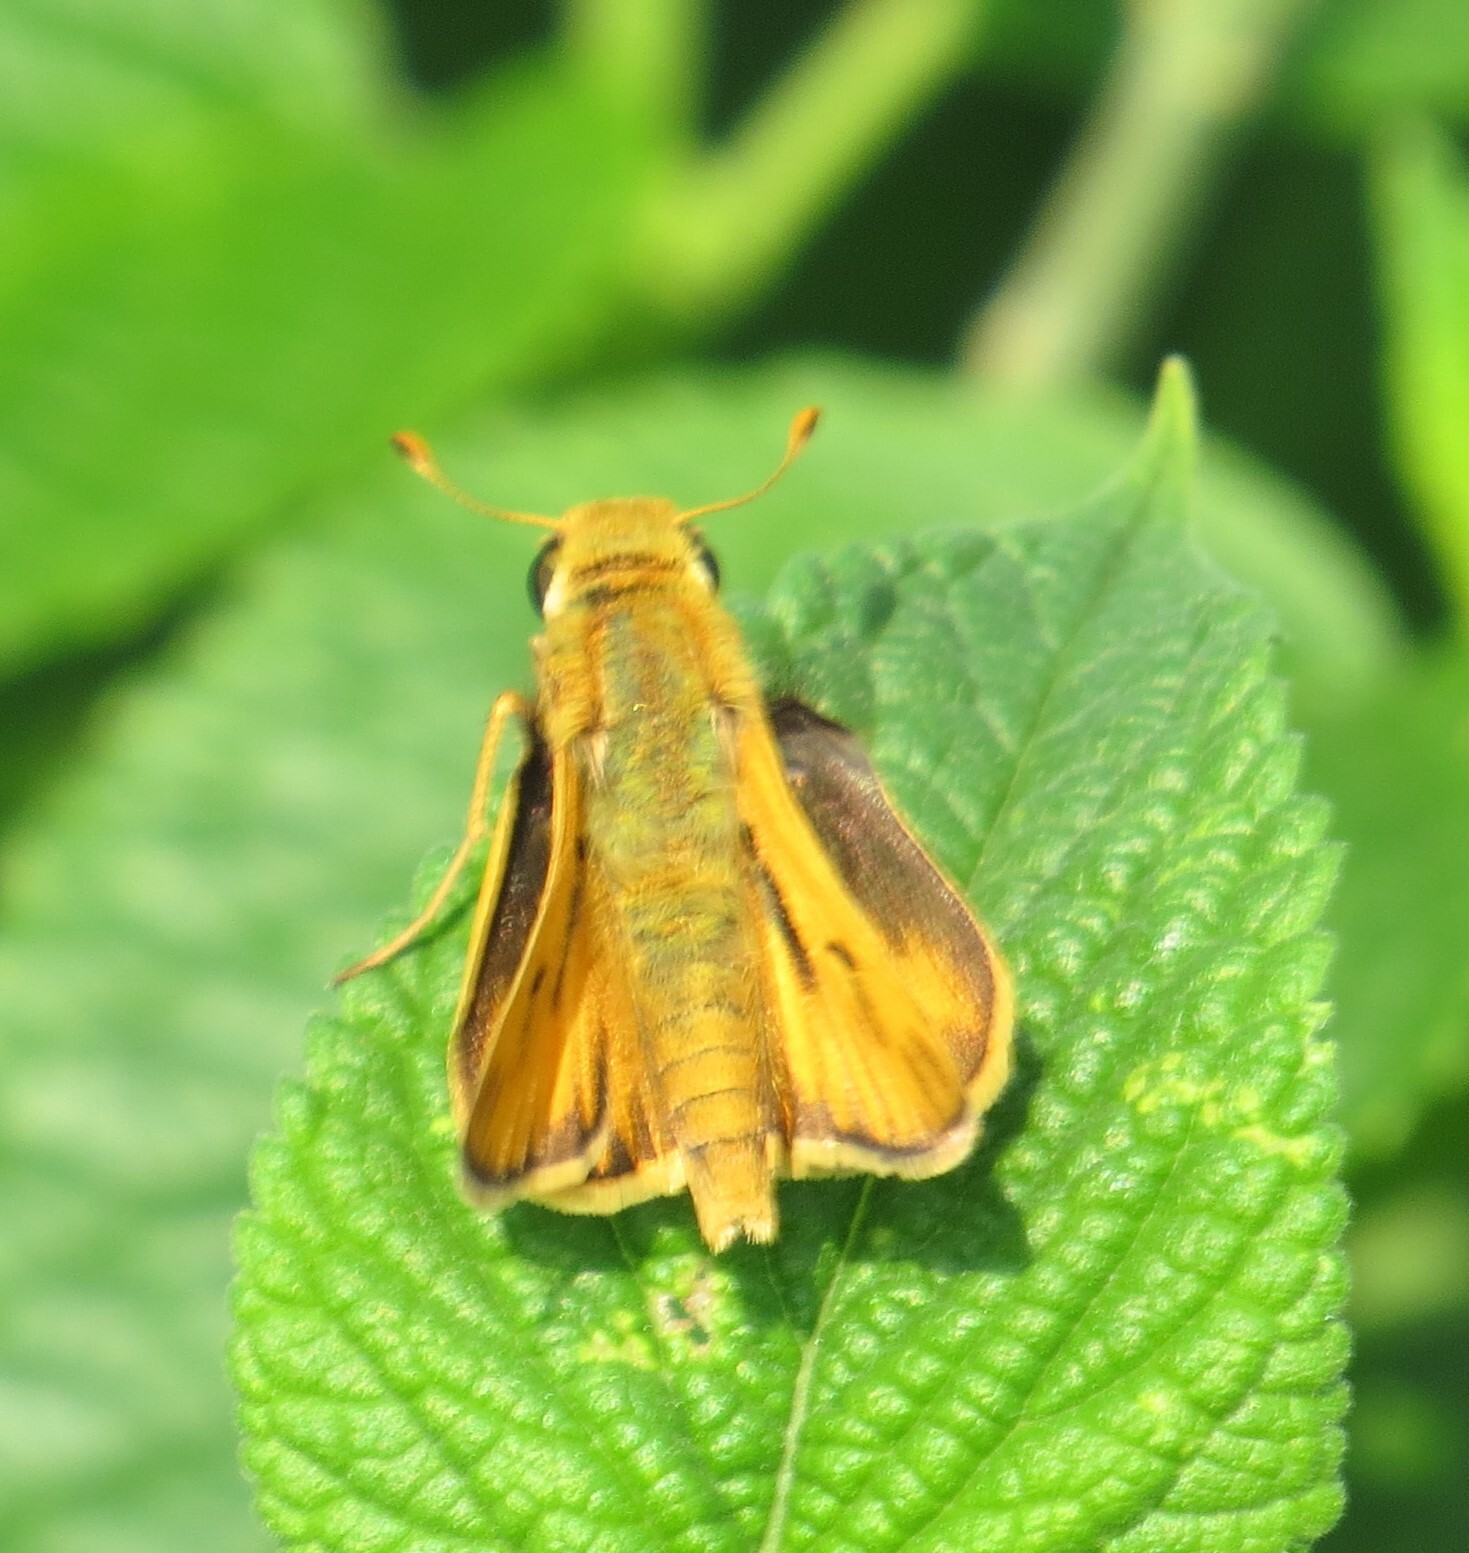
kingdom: Animalia
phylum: Arthropoda
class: Insecta
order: Lepidoptera
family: Hesperiidae
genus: Hylephila
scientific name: Hylephila phyleus
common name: Fiery skipper
